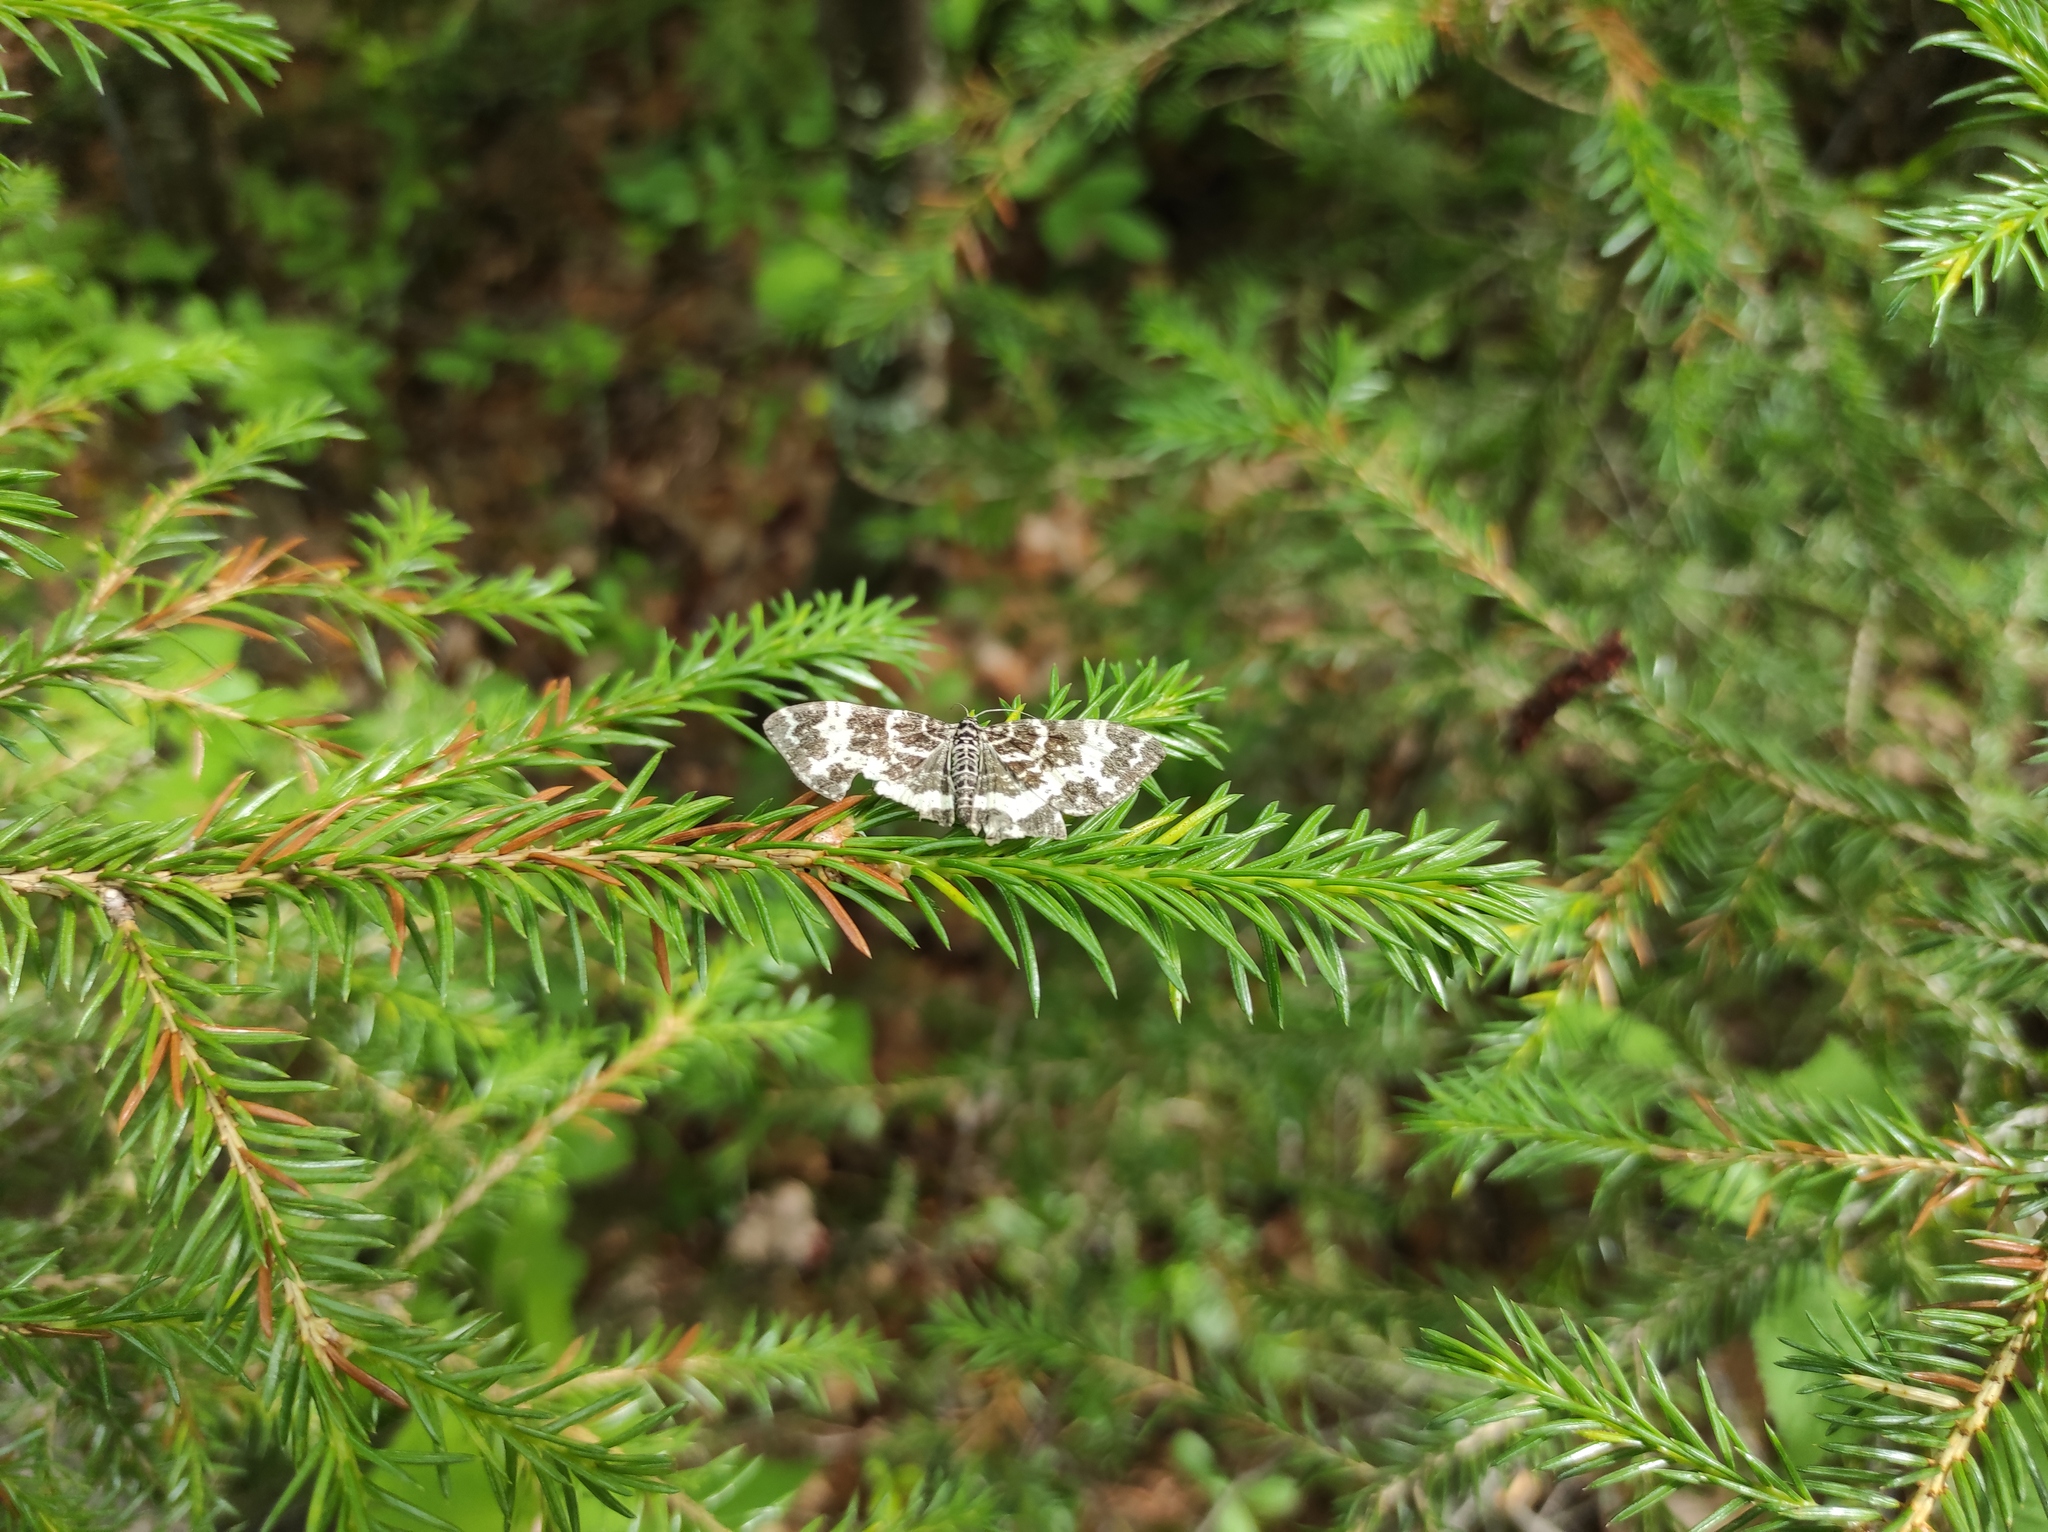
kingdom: Plantae
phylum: Tracheophyta
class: Pinopsida
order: Pinales
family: Pinaceae
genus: Picea
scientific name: Picea obovata
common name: Siberian spruce
